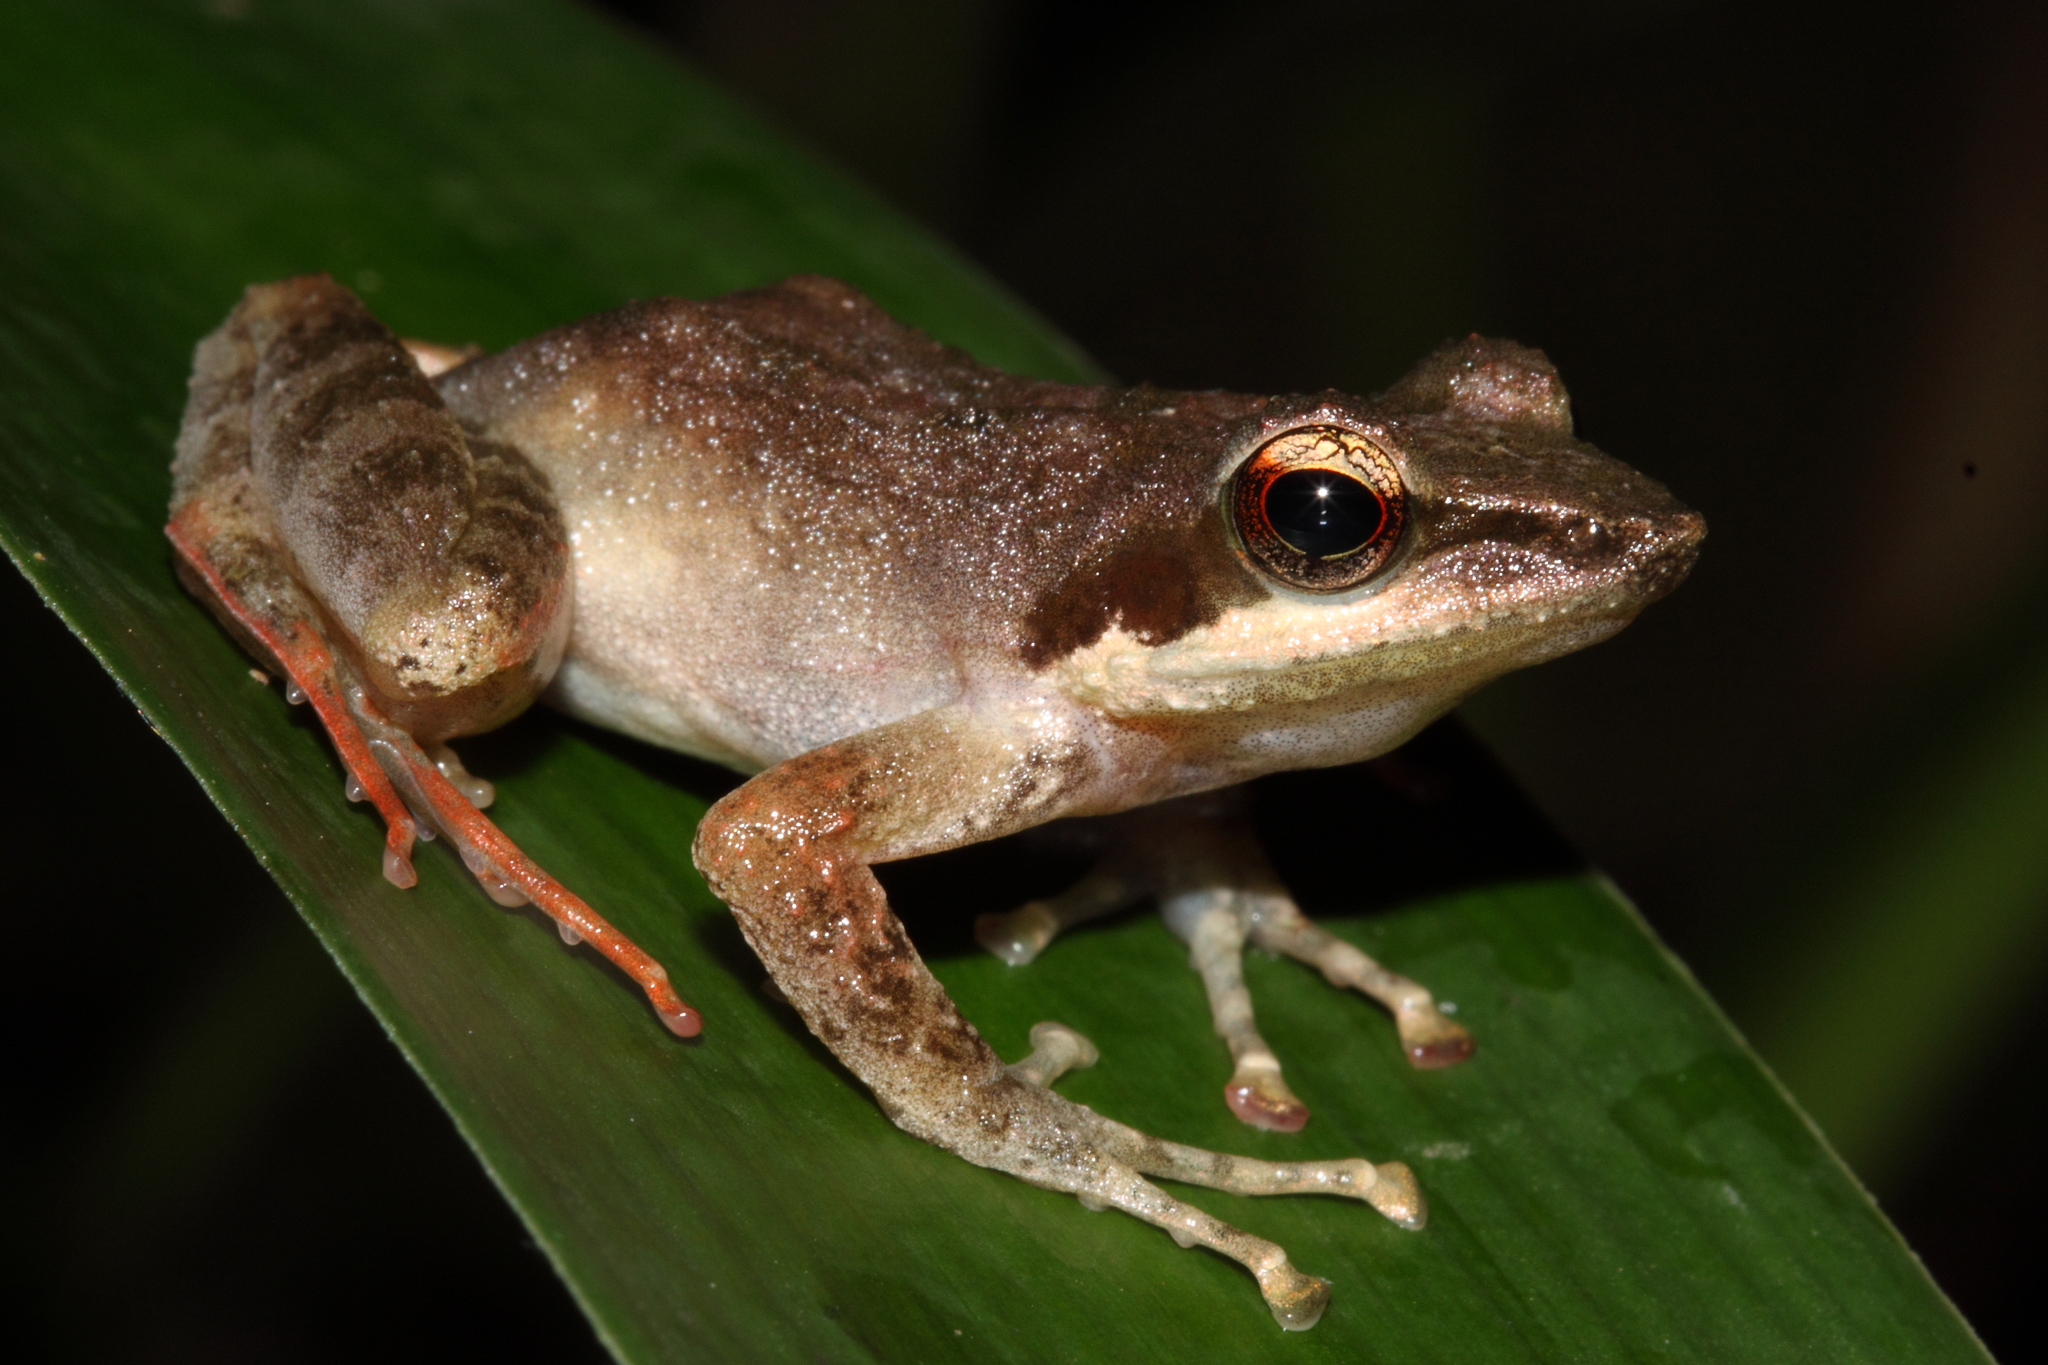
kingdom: Animalia
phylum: Chordata
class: Amphibia
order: Anura
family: Pyxicephalidae
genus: Natalobatrachus
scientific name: Natalobatrachus bonebergi
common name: Natal diving frog
